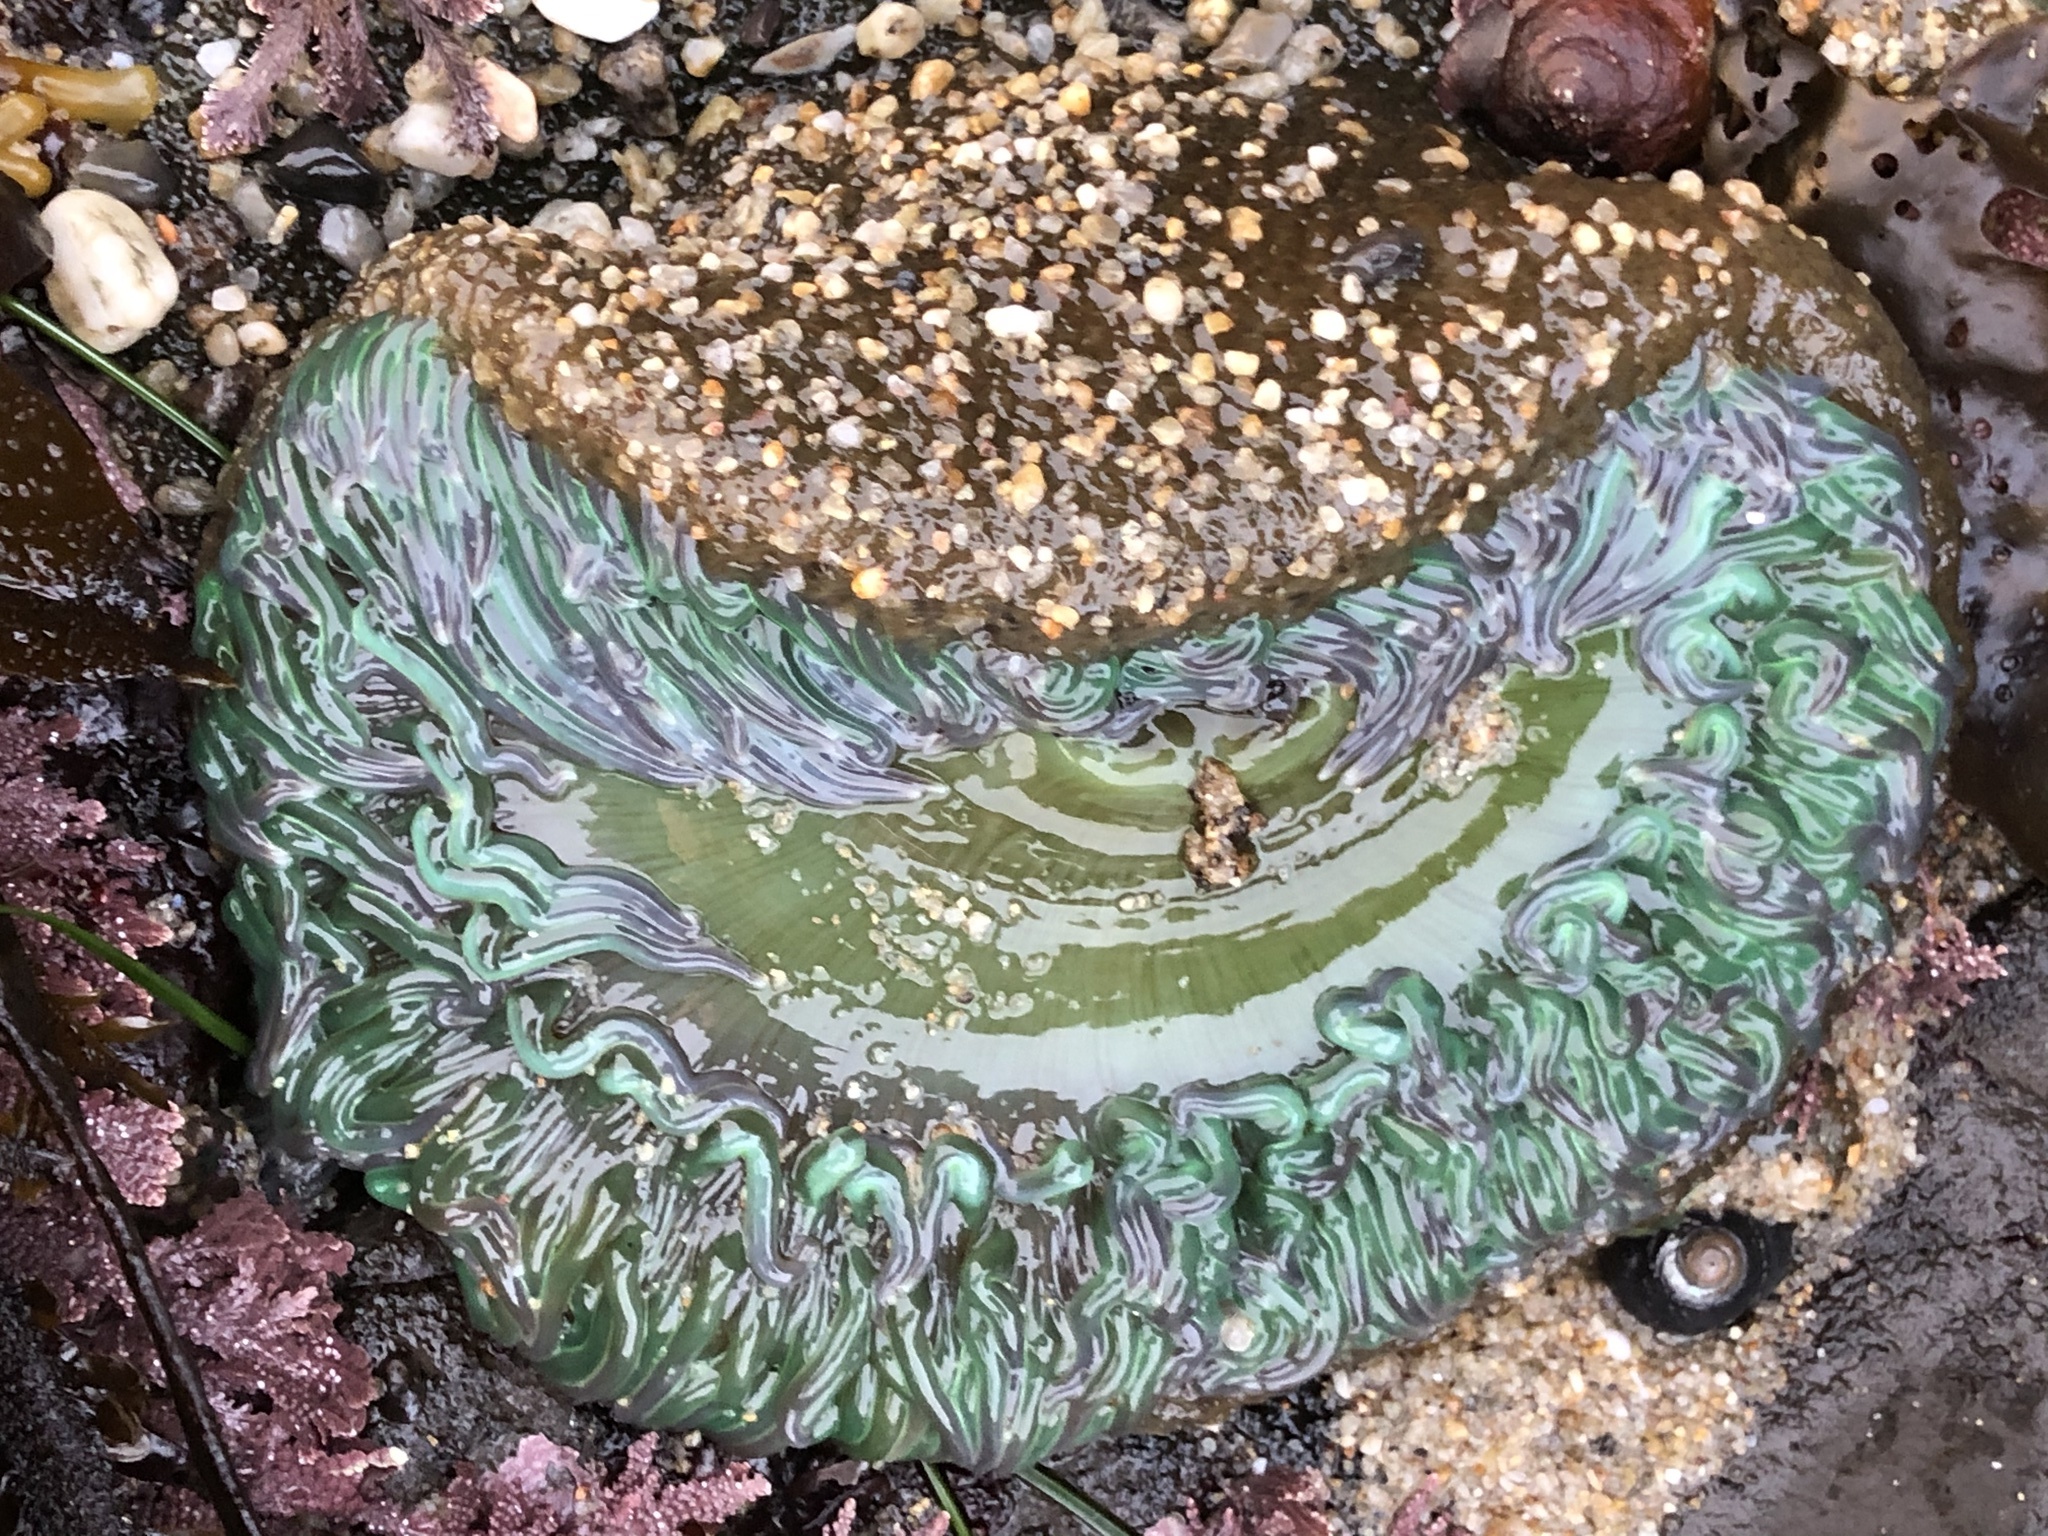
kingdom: Animalia
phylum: Cnidaria
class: Anthozoa
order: Actiniaria
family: Actiniidae
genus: Anthopleura
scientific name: Anthopleura xanthogrammica
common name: Giant green anemone
